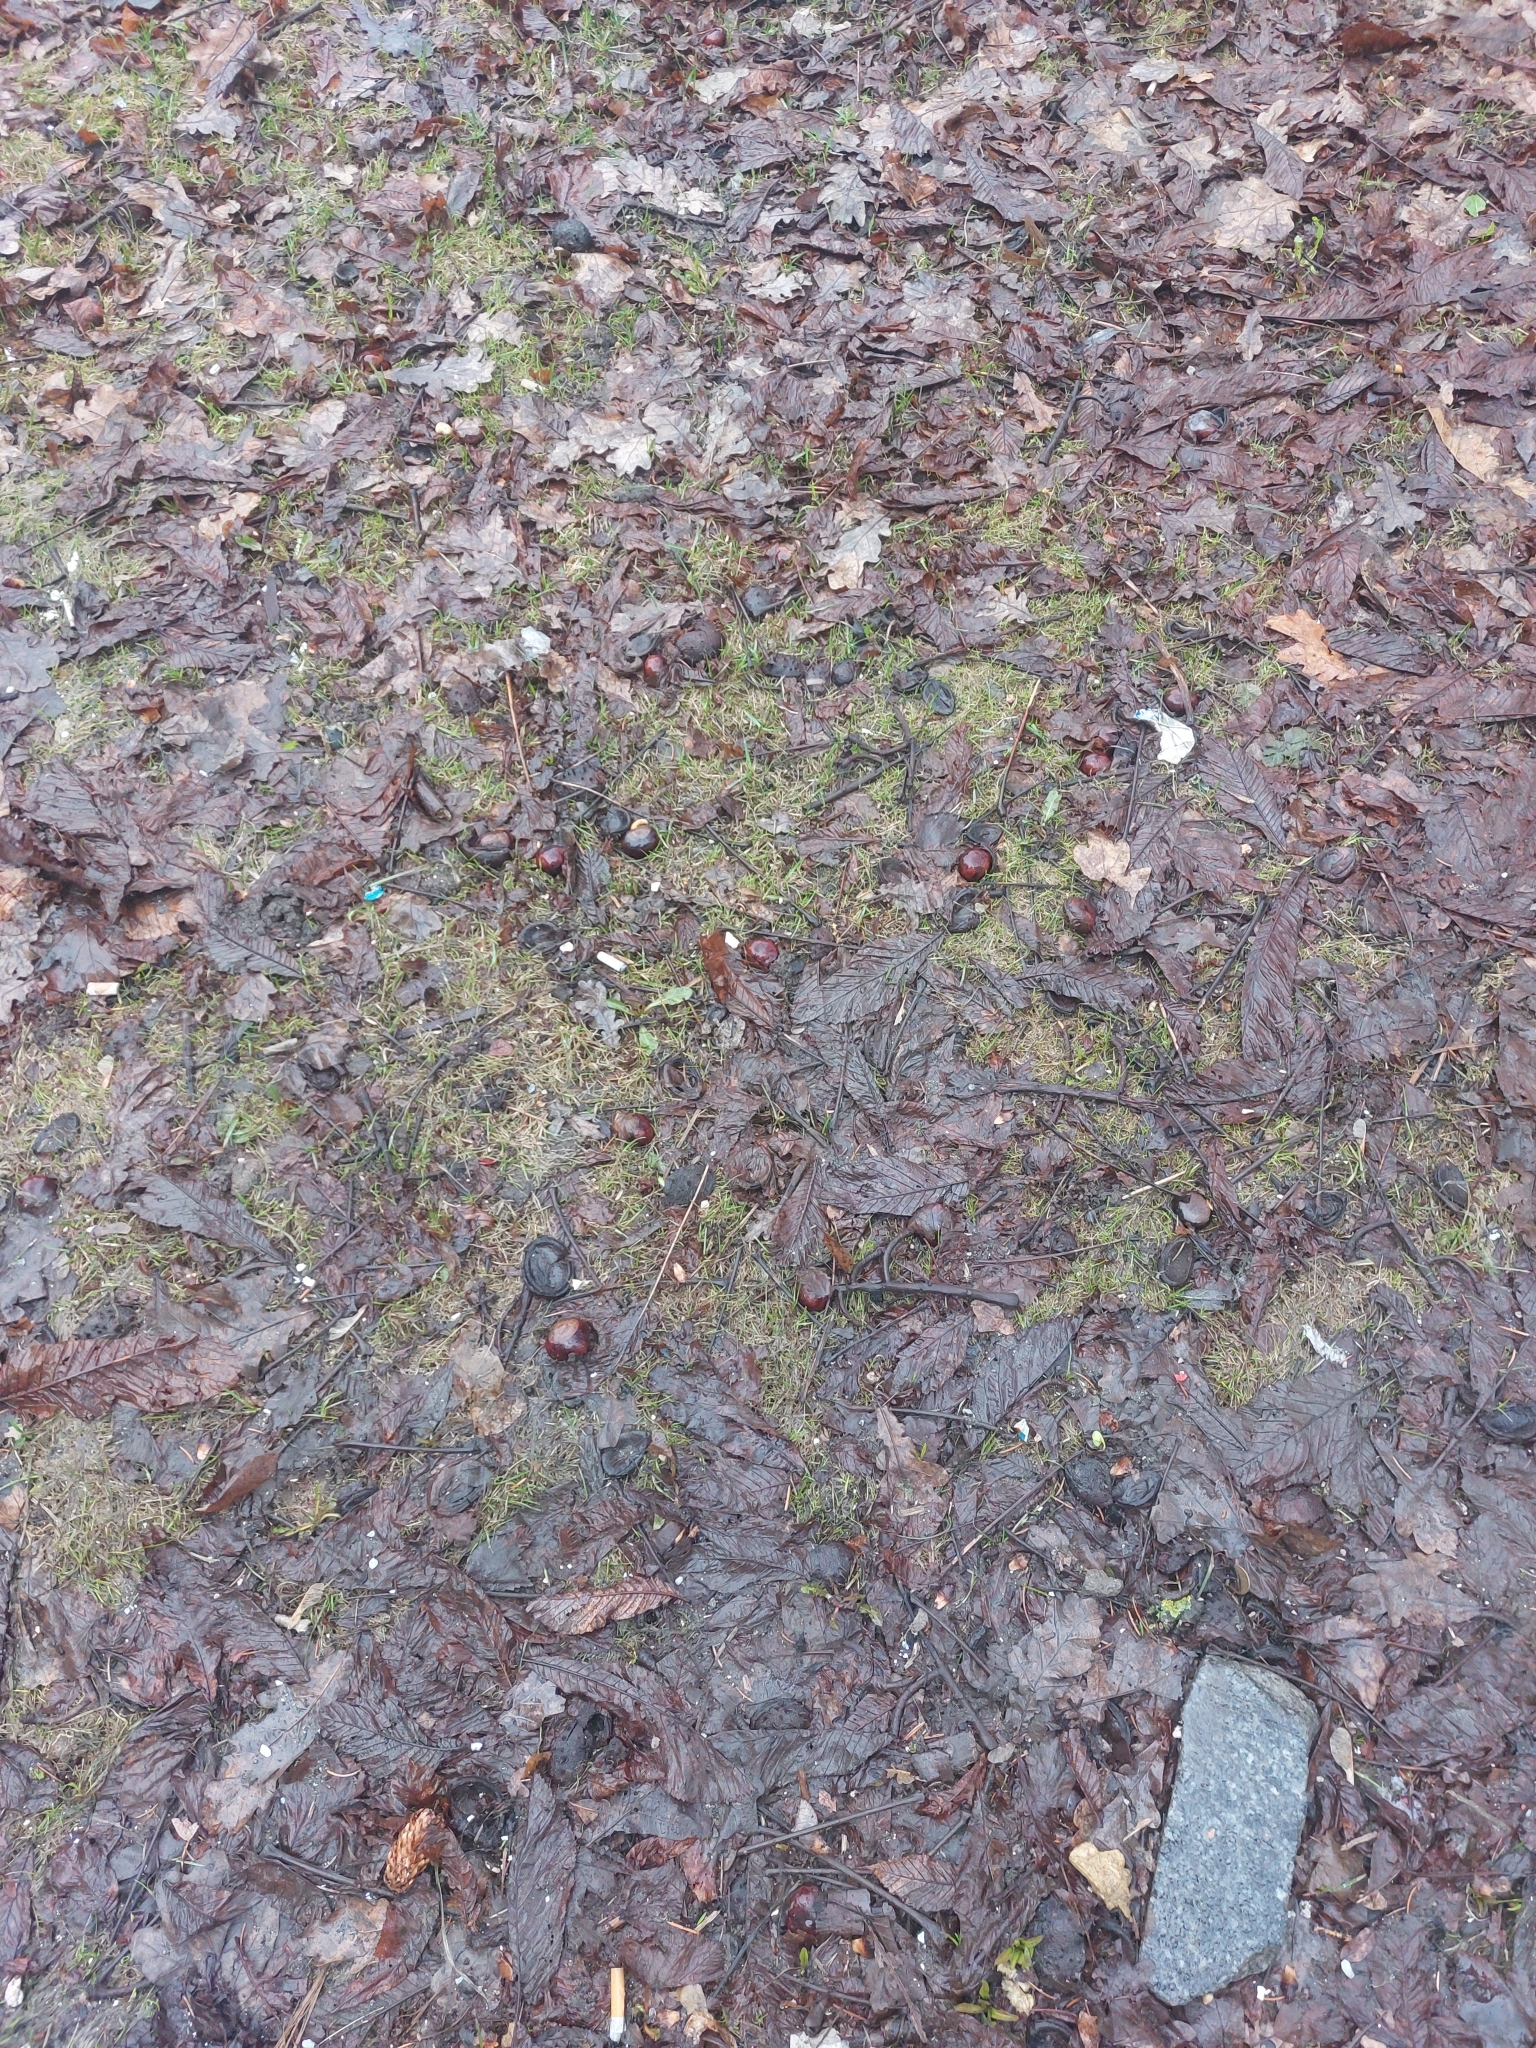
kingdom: Plantae
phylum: Tracheophyta
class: Magnoliopsida
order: Sapindales
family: Sapindaceae
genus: Aesculus
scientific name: Aesculus hippocastanum
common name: Horse-chestnut
